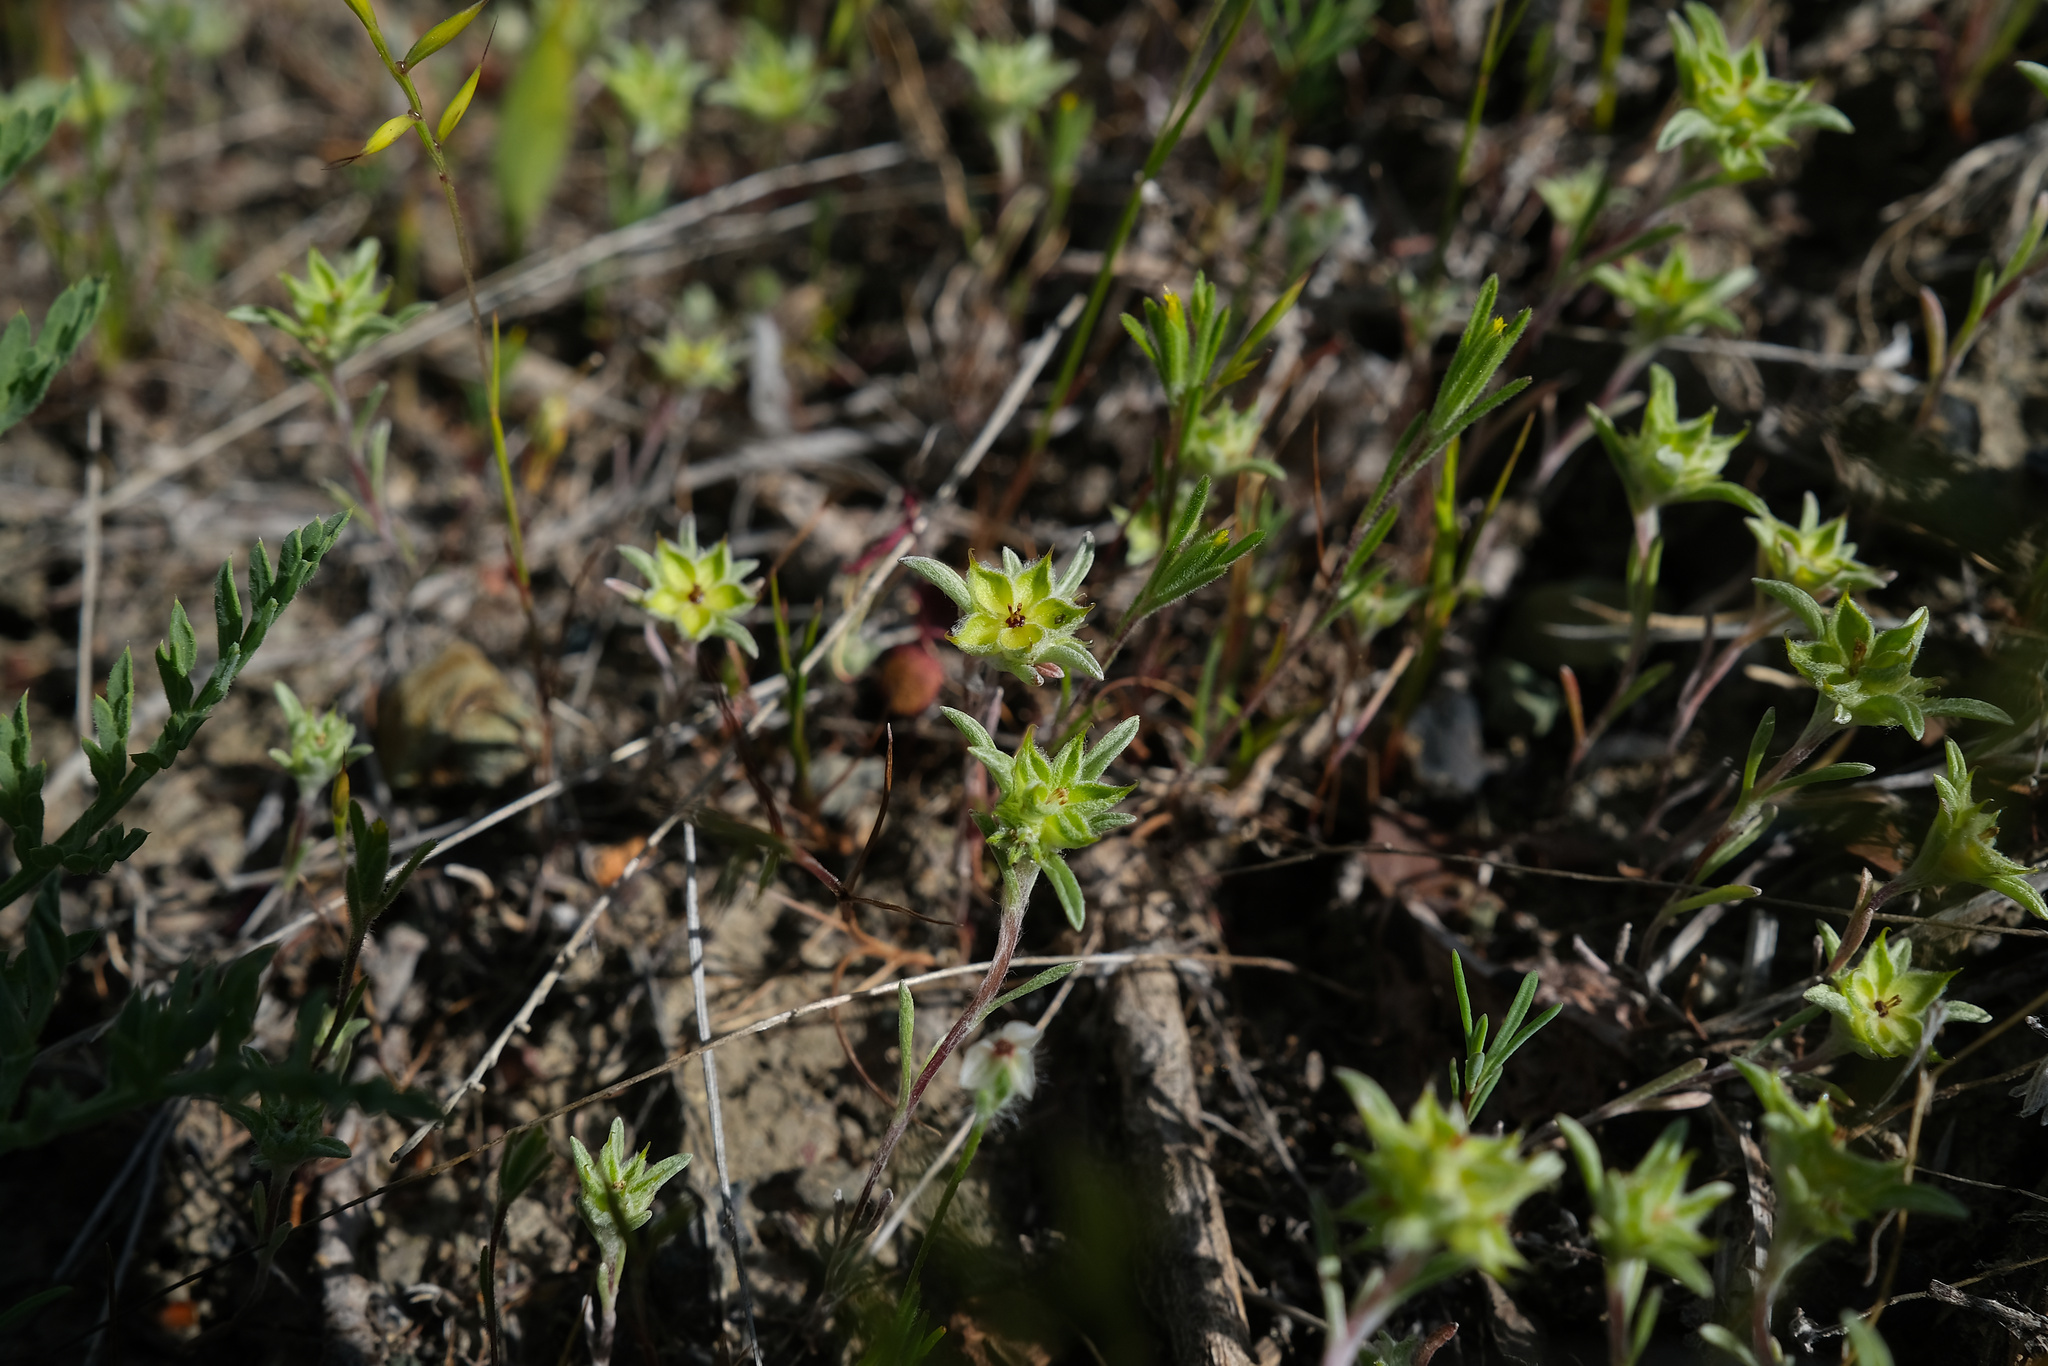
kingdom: Plantae
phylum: Tracheophyta
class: Magnoliopsida
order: Asterales
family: Asteraceae
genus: Ancistrocarphus
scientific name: Ancistrocarphus filagineus
